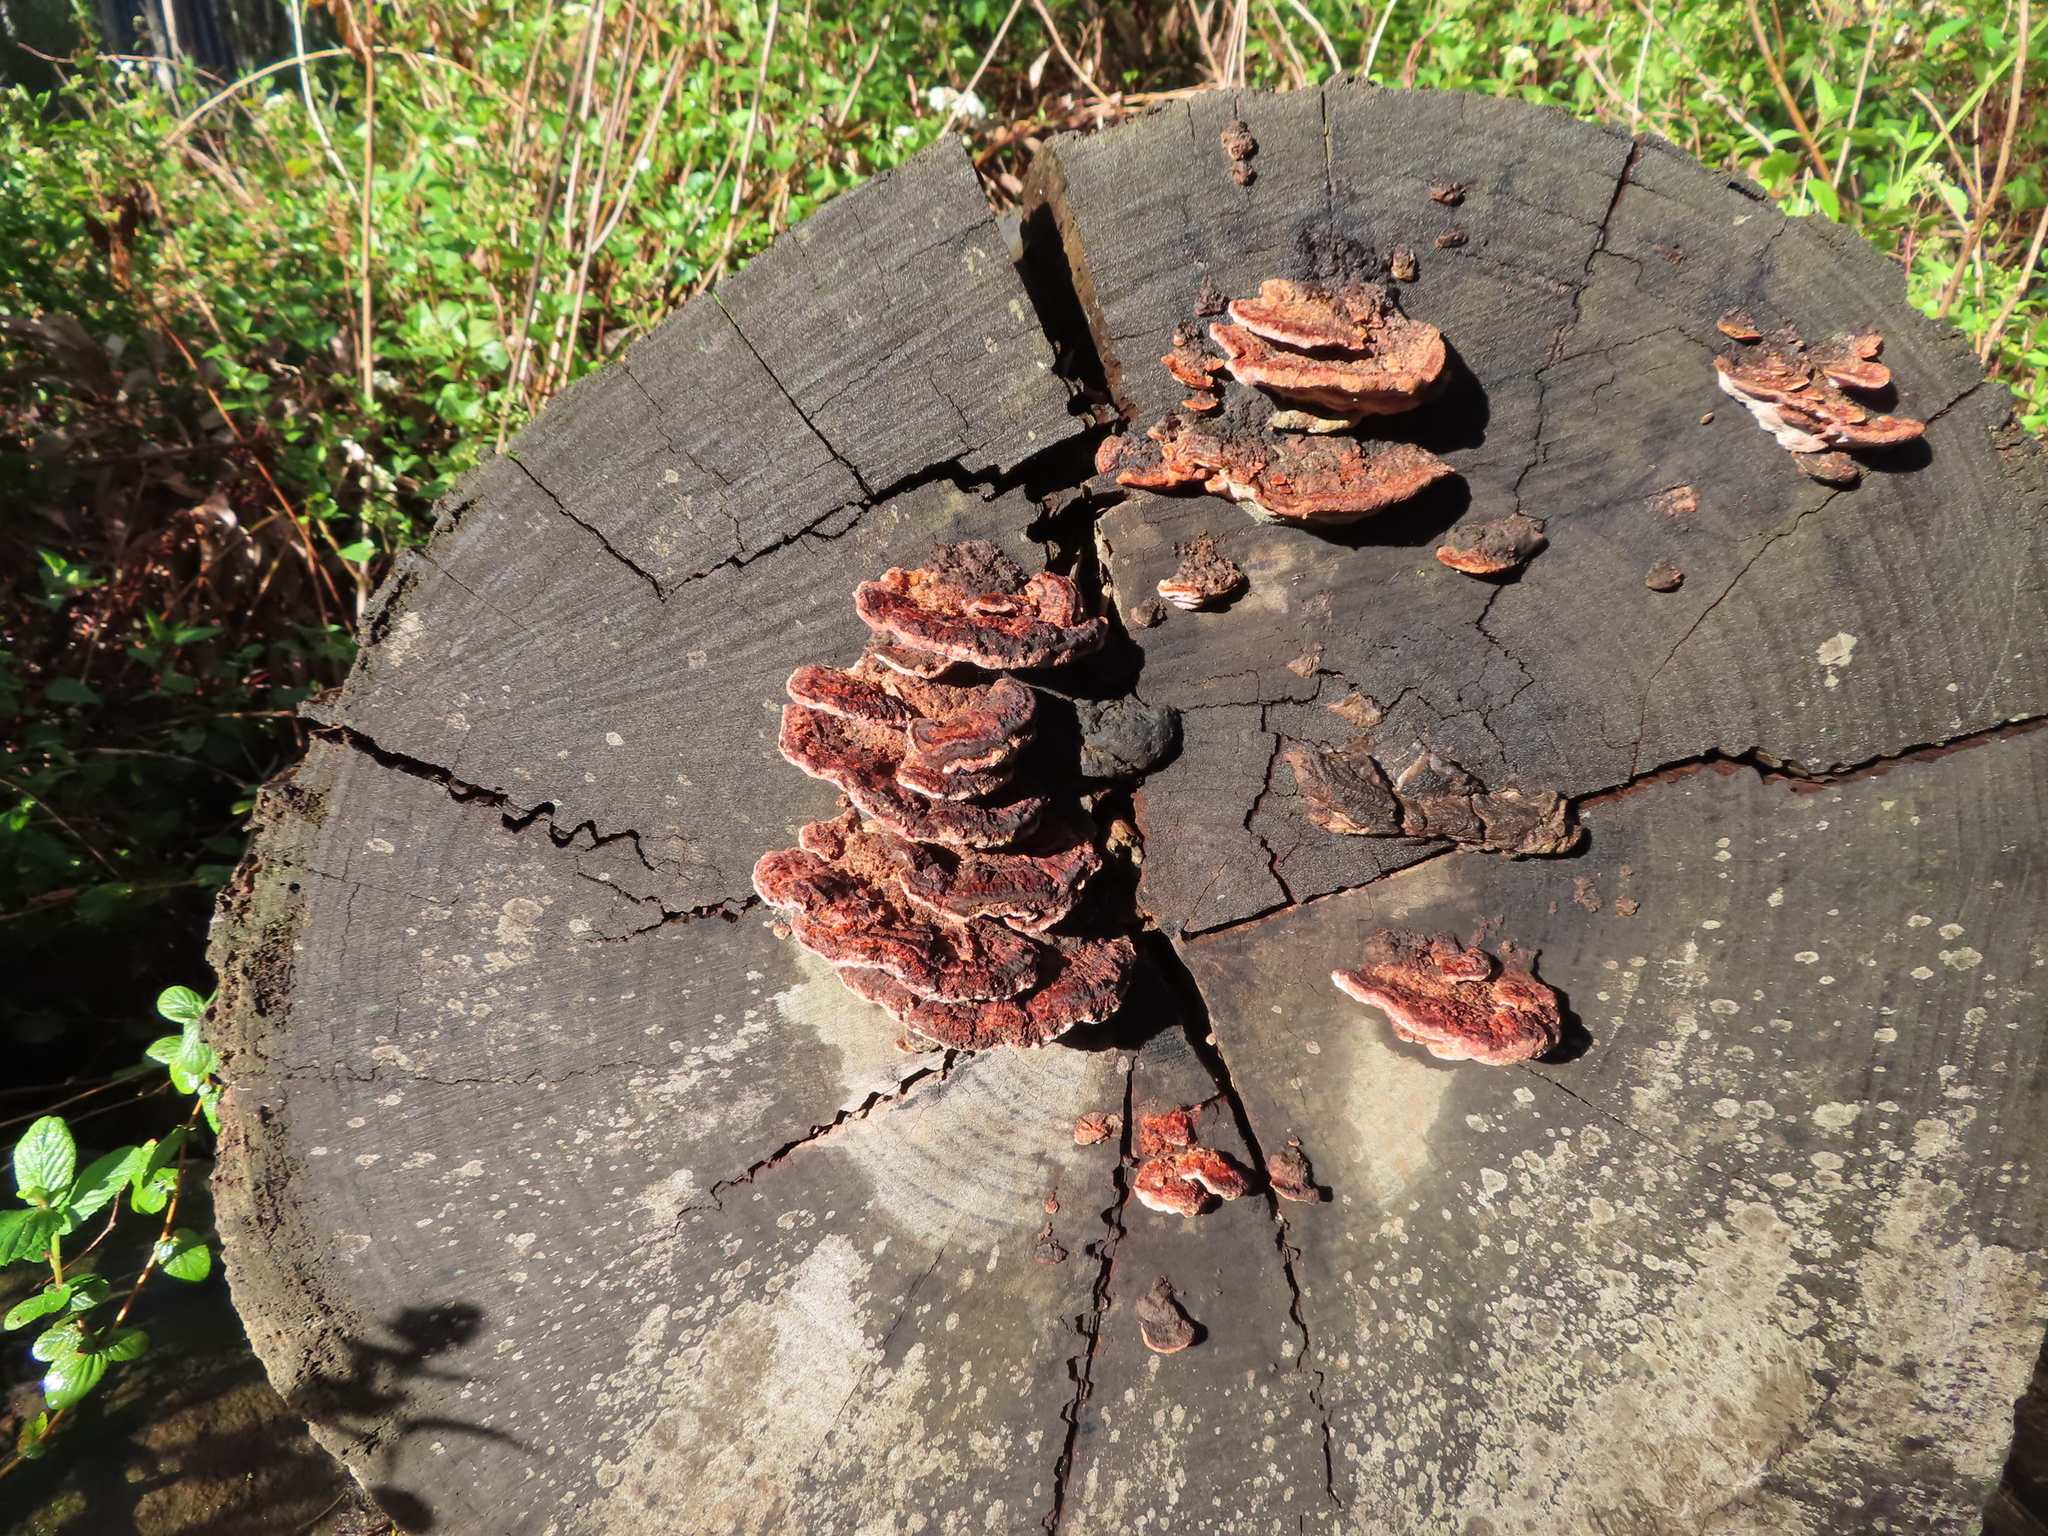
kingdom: Fungi
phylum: Basidiomycota
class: Agaricomycetes
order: Polyporales
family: Fomitopsidaceae
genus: Rhodofomitopsis
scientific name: Rhodofomitopsis lilacinogilva
